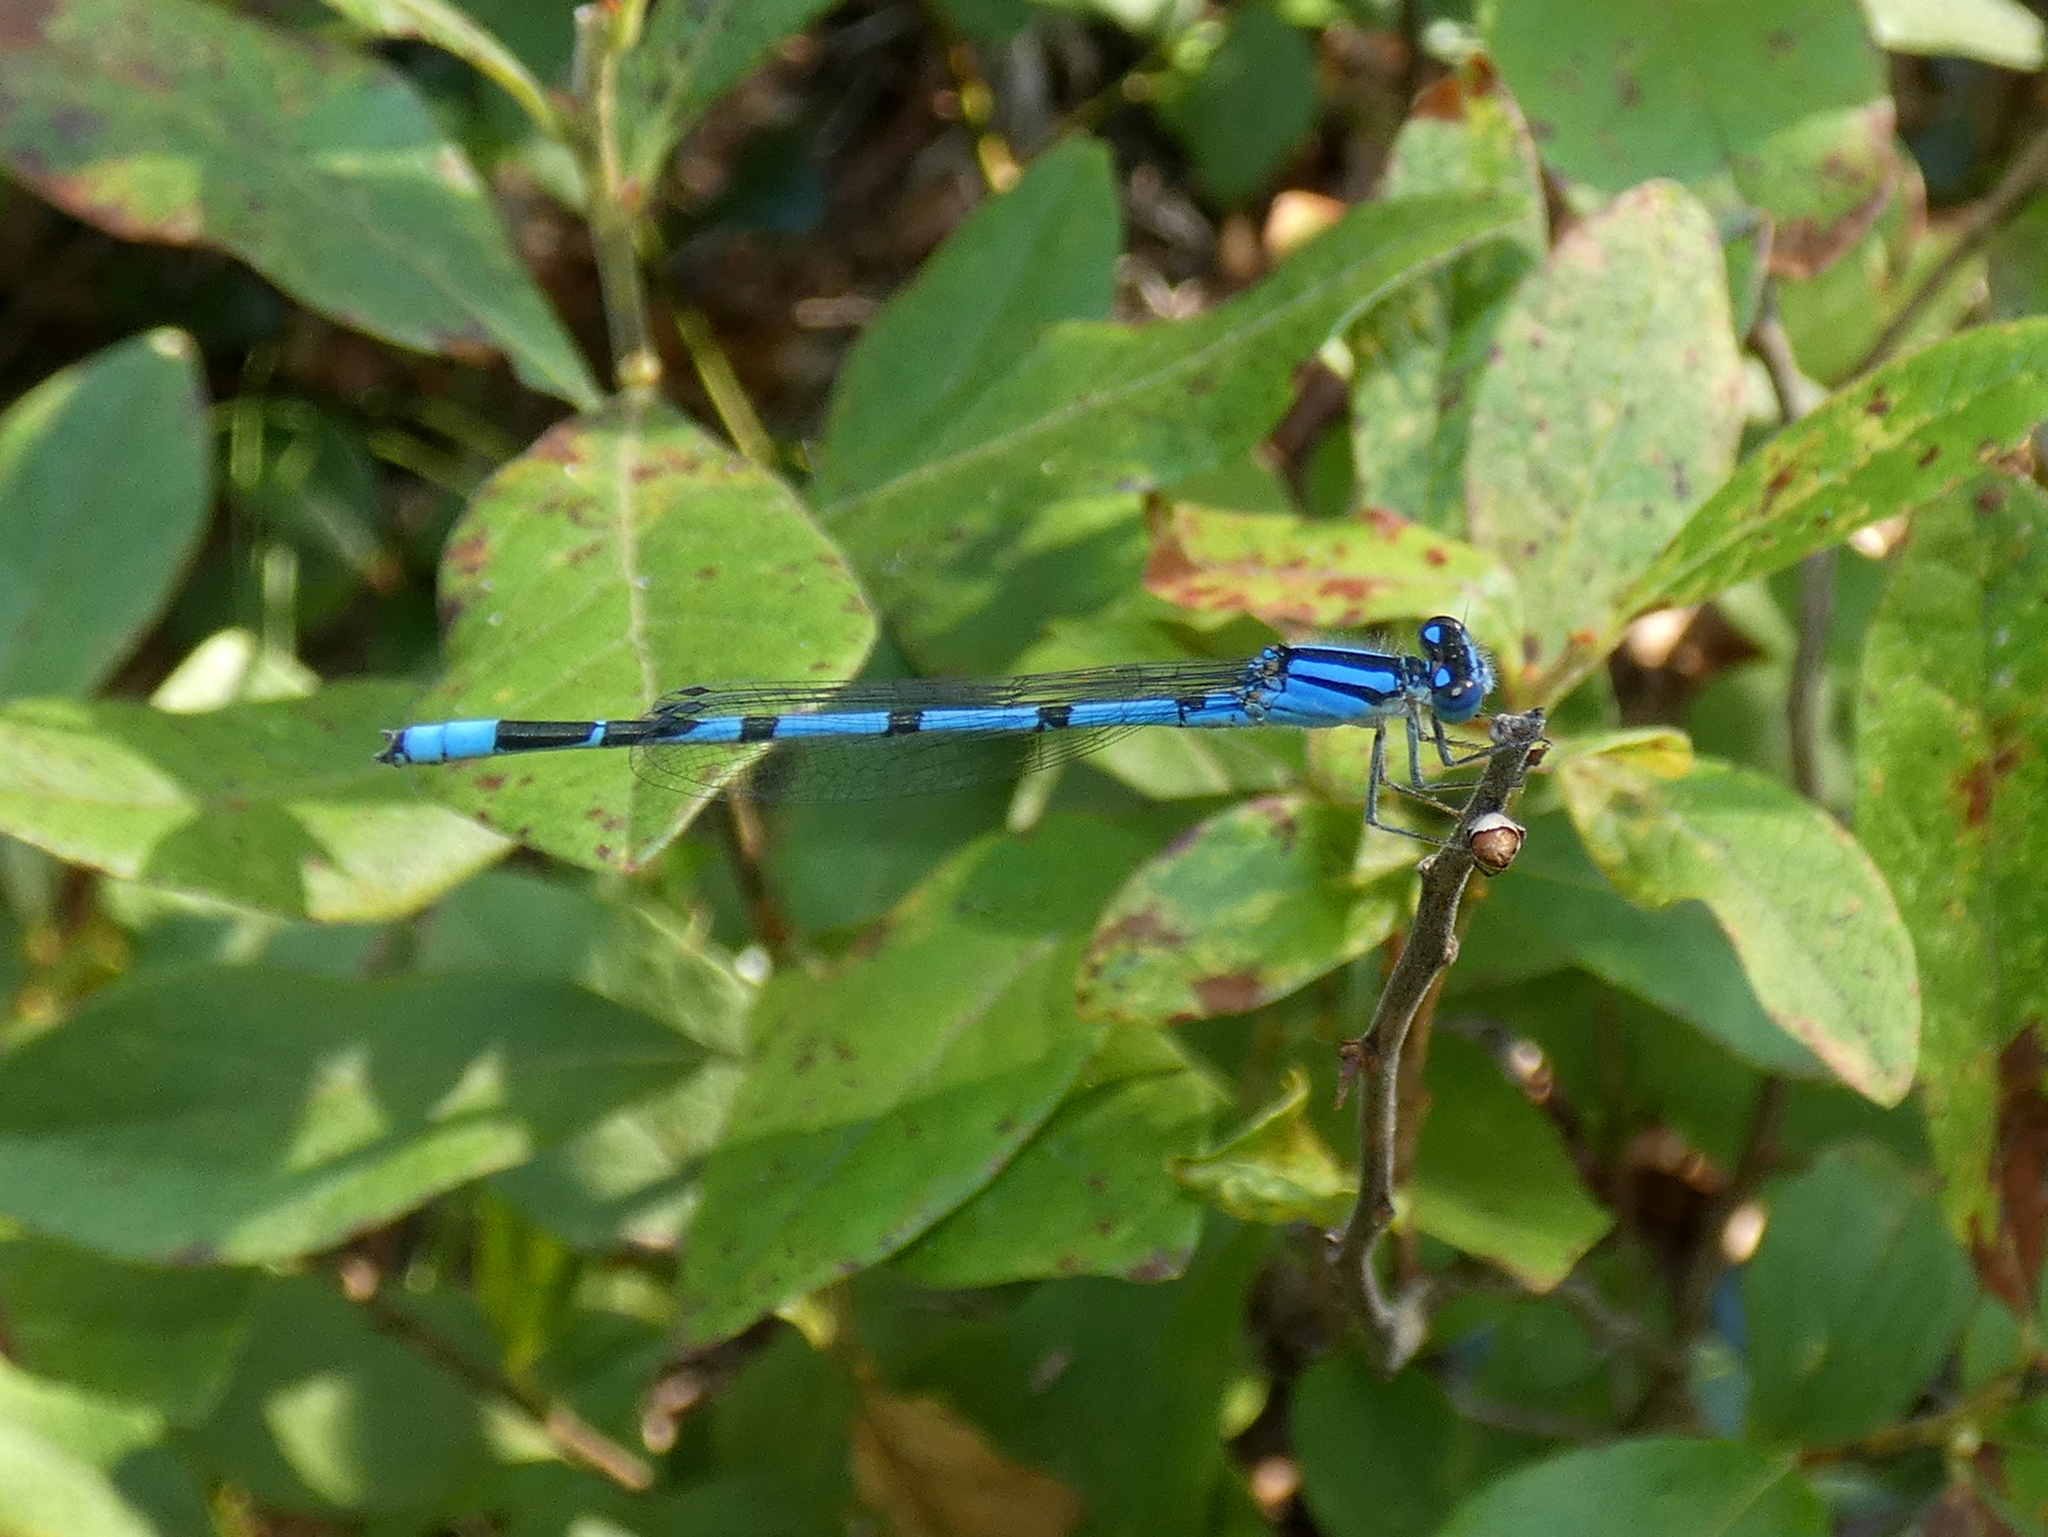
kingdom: Animalia
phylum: Arthropoda
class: Insecta
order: Odonata
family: Coenagrionidae
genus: Enallagma
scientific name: Enallagma civile
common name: Damselfly
